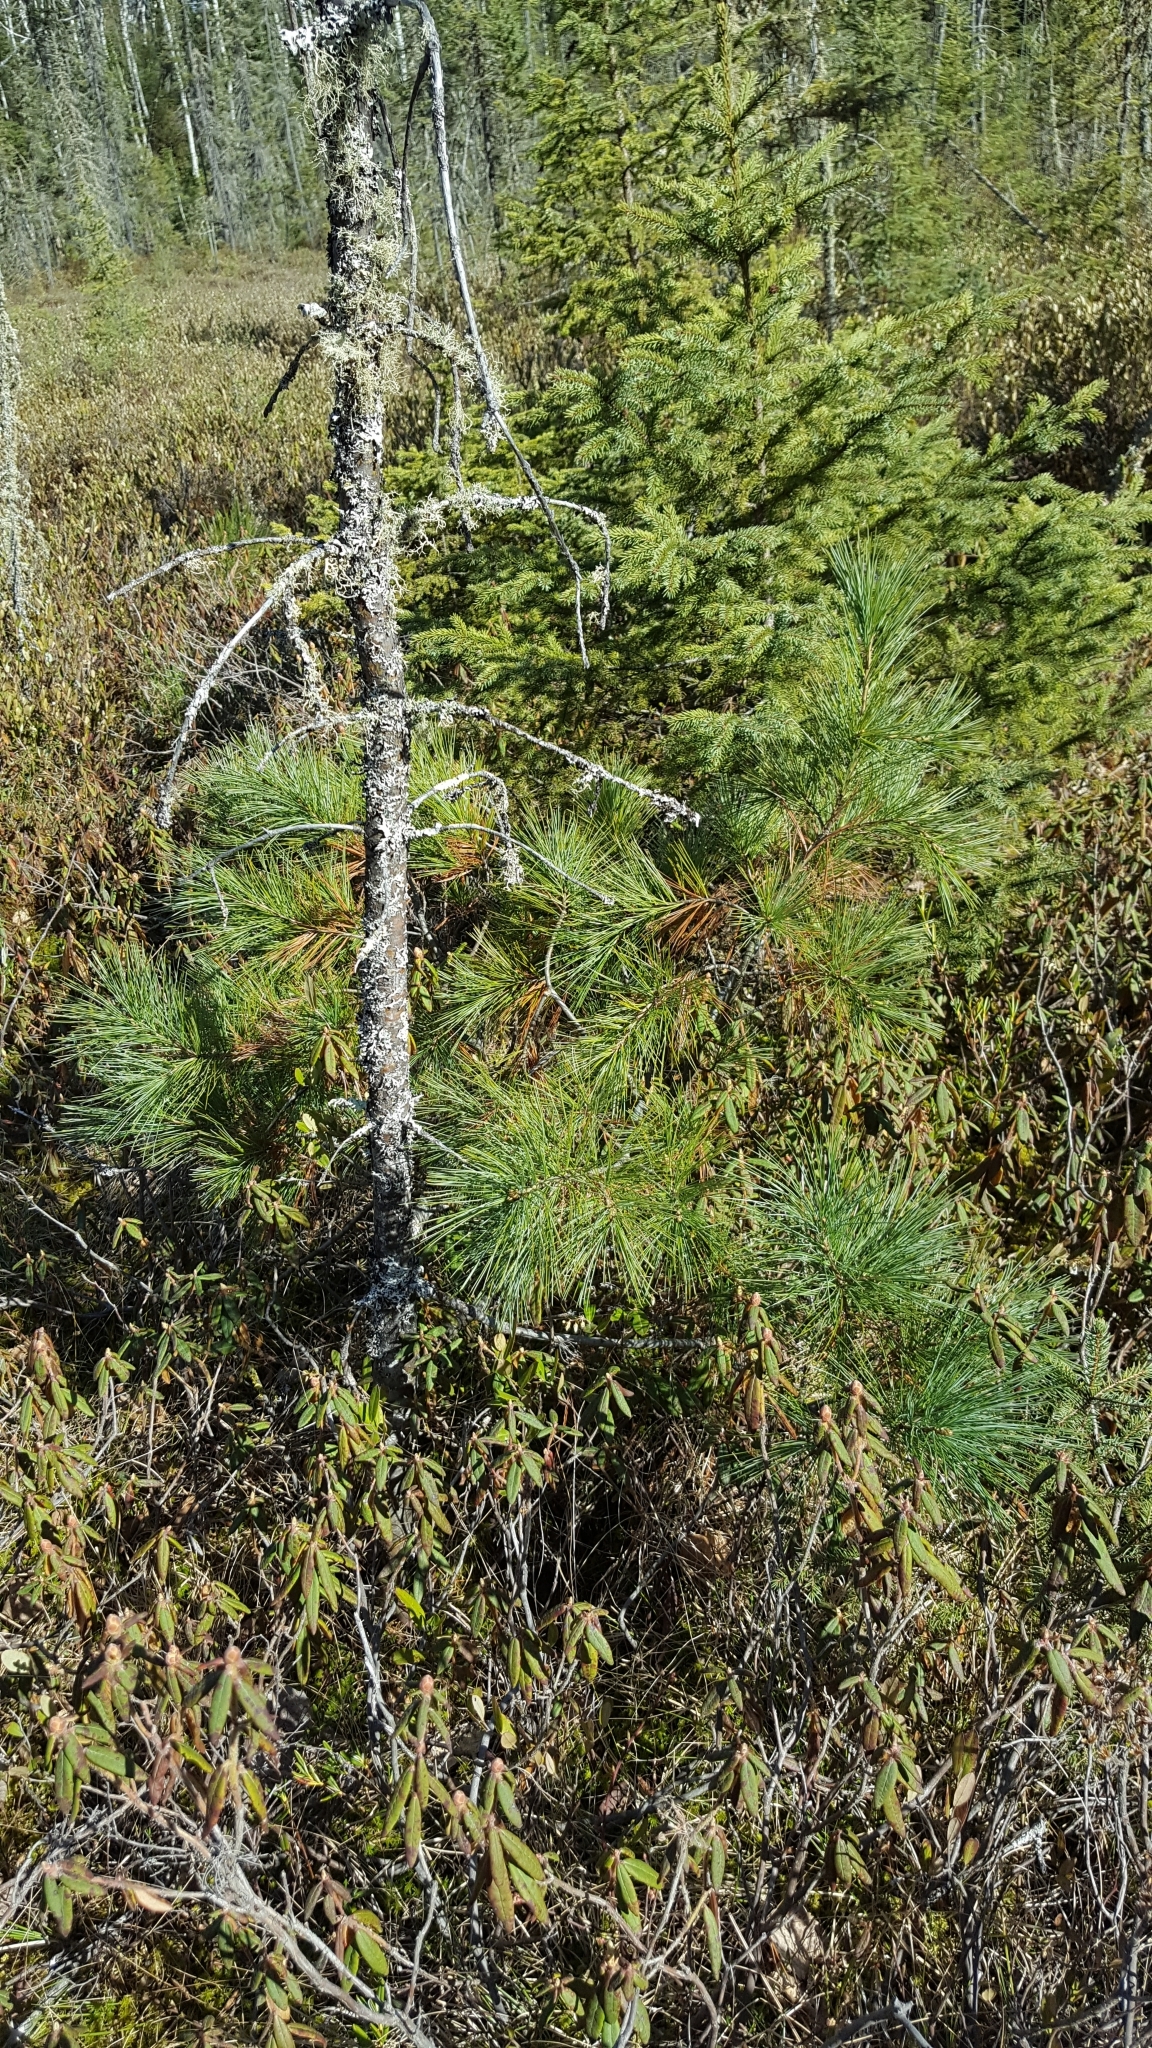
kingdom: Plantae
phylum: Tracheophyta
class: Pinopsida
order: Pinales
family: Pinaceae
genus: Pinus
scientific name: Pinus strobus
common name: Weymouth pine
